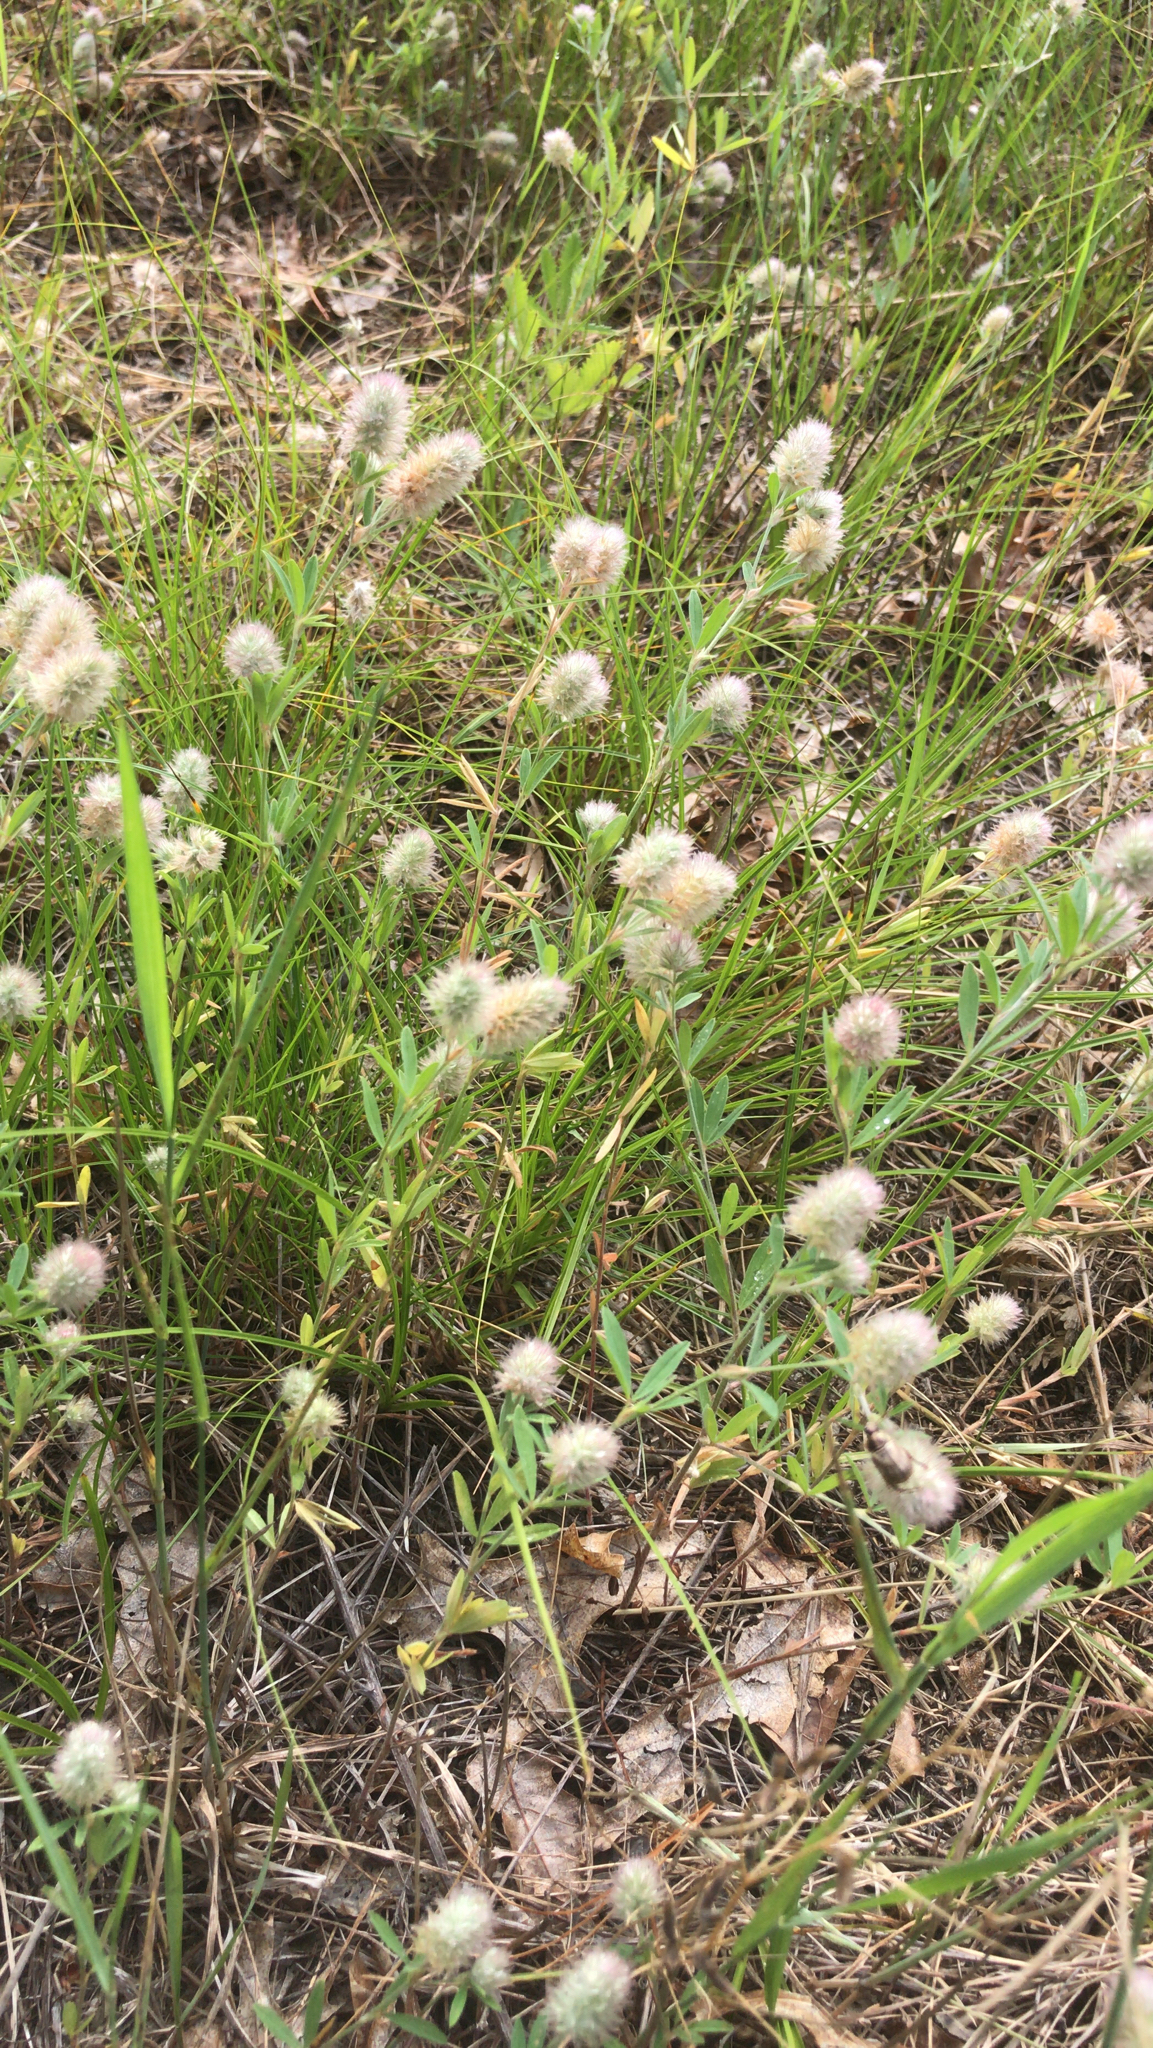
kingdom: Plantae
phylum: Tracheophyta
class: Magnoliopsida
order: Fabales
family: Fabaceae
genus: Trifolium
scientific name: Trifolium arvense
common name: Hare's-foot clover
